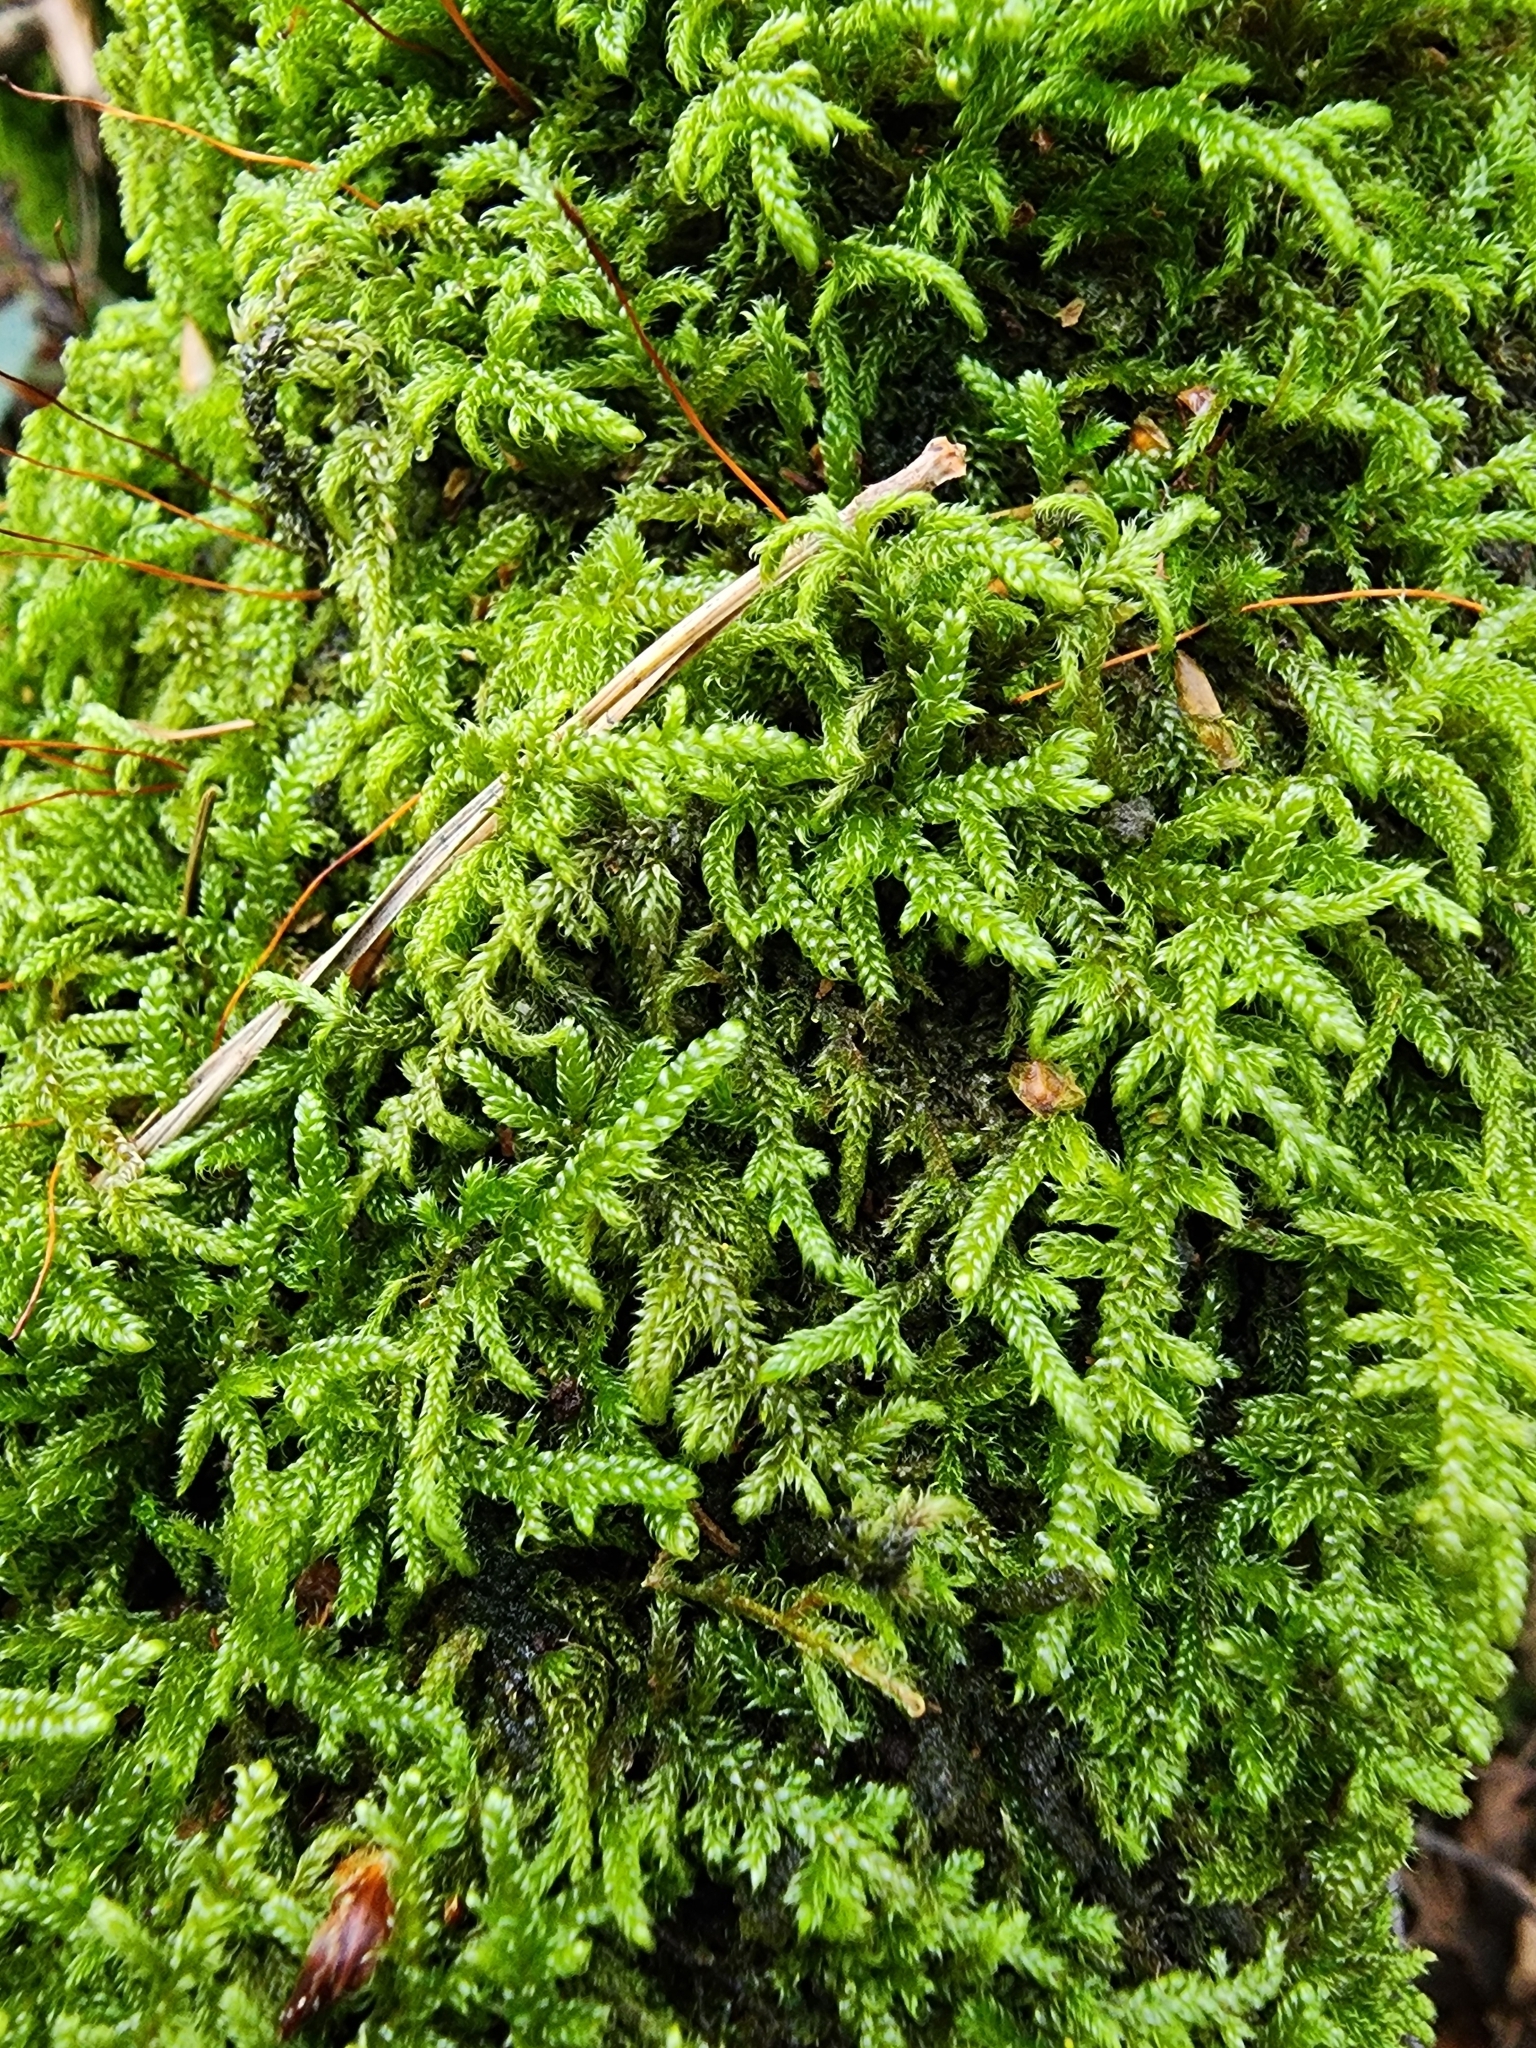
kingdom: Plantae
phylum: Bryophyta
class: Bryopsida
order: Hypnales
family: Hypnaceae
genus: Hypnum
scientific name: Hypnum cupressiforme
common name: Cypress-leaved plait-moss
